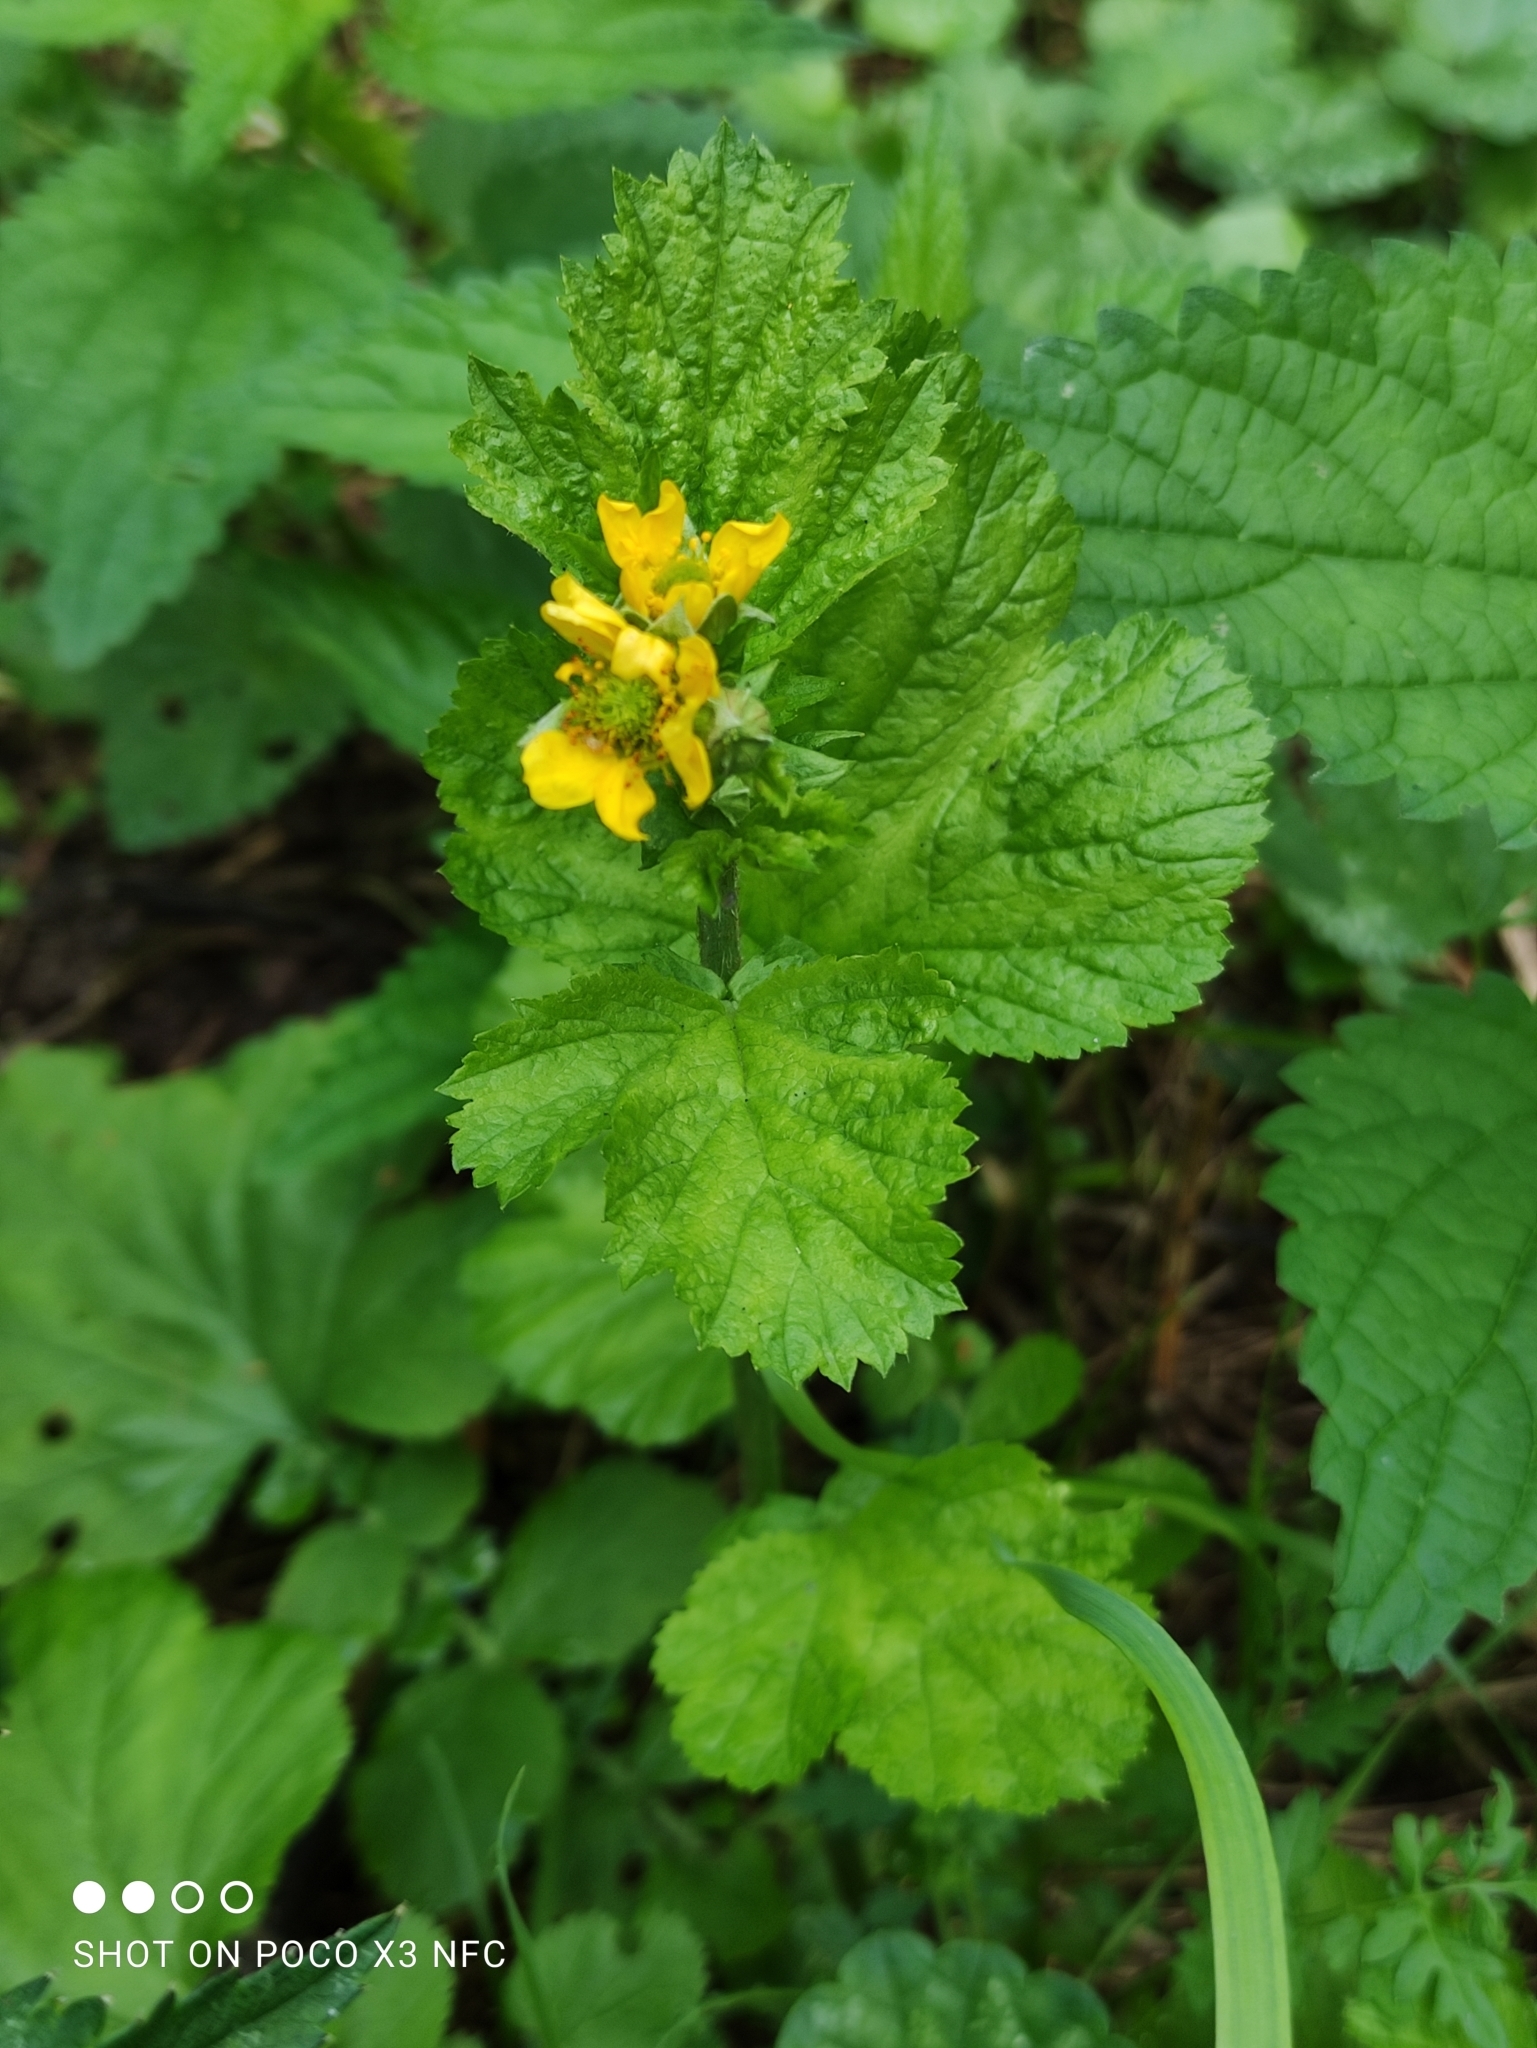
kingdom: Plantae
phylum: Tracheophyta
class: Magnoliopsida
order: Rosales
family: Rosaceae
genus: Geum
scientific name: Geum macrophyllum
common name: Large-leaved avens
